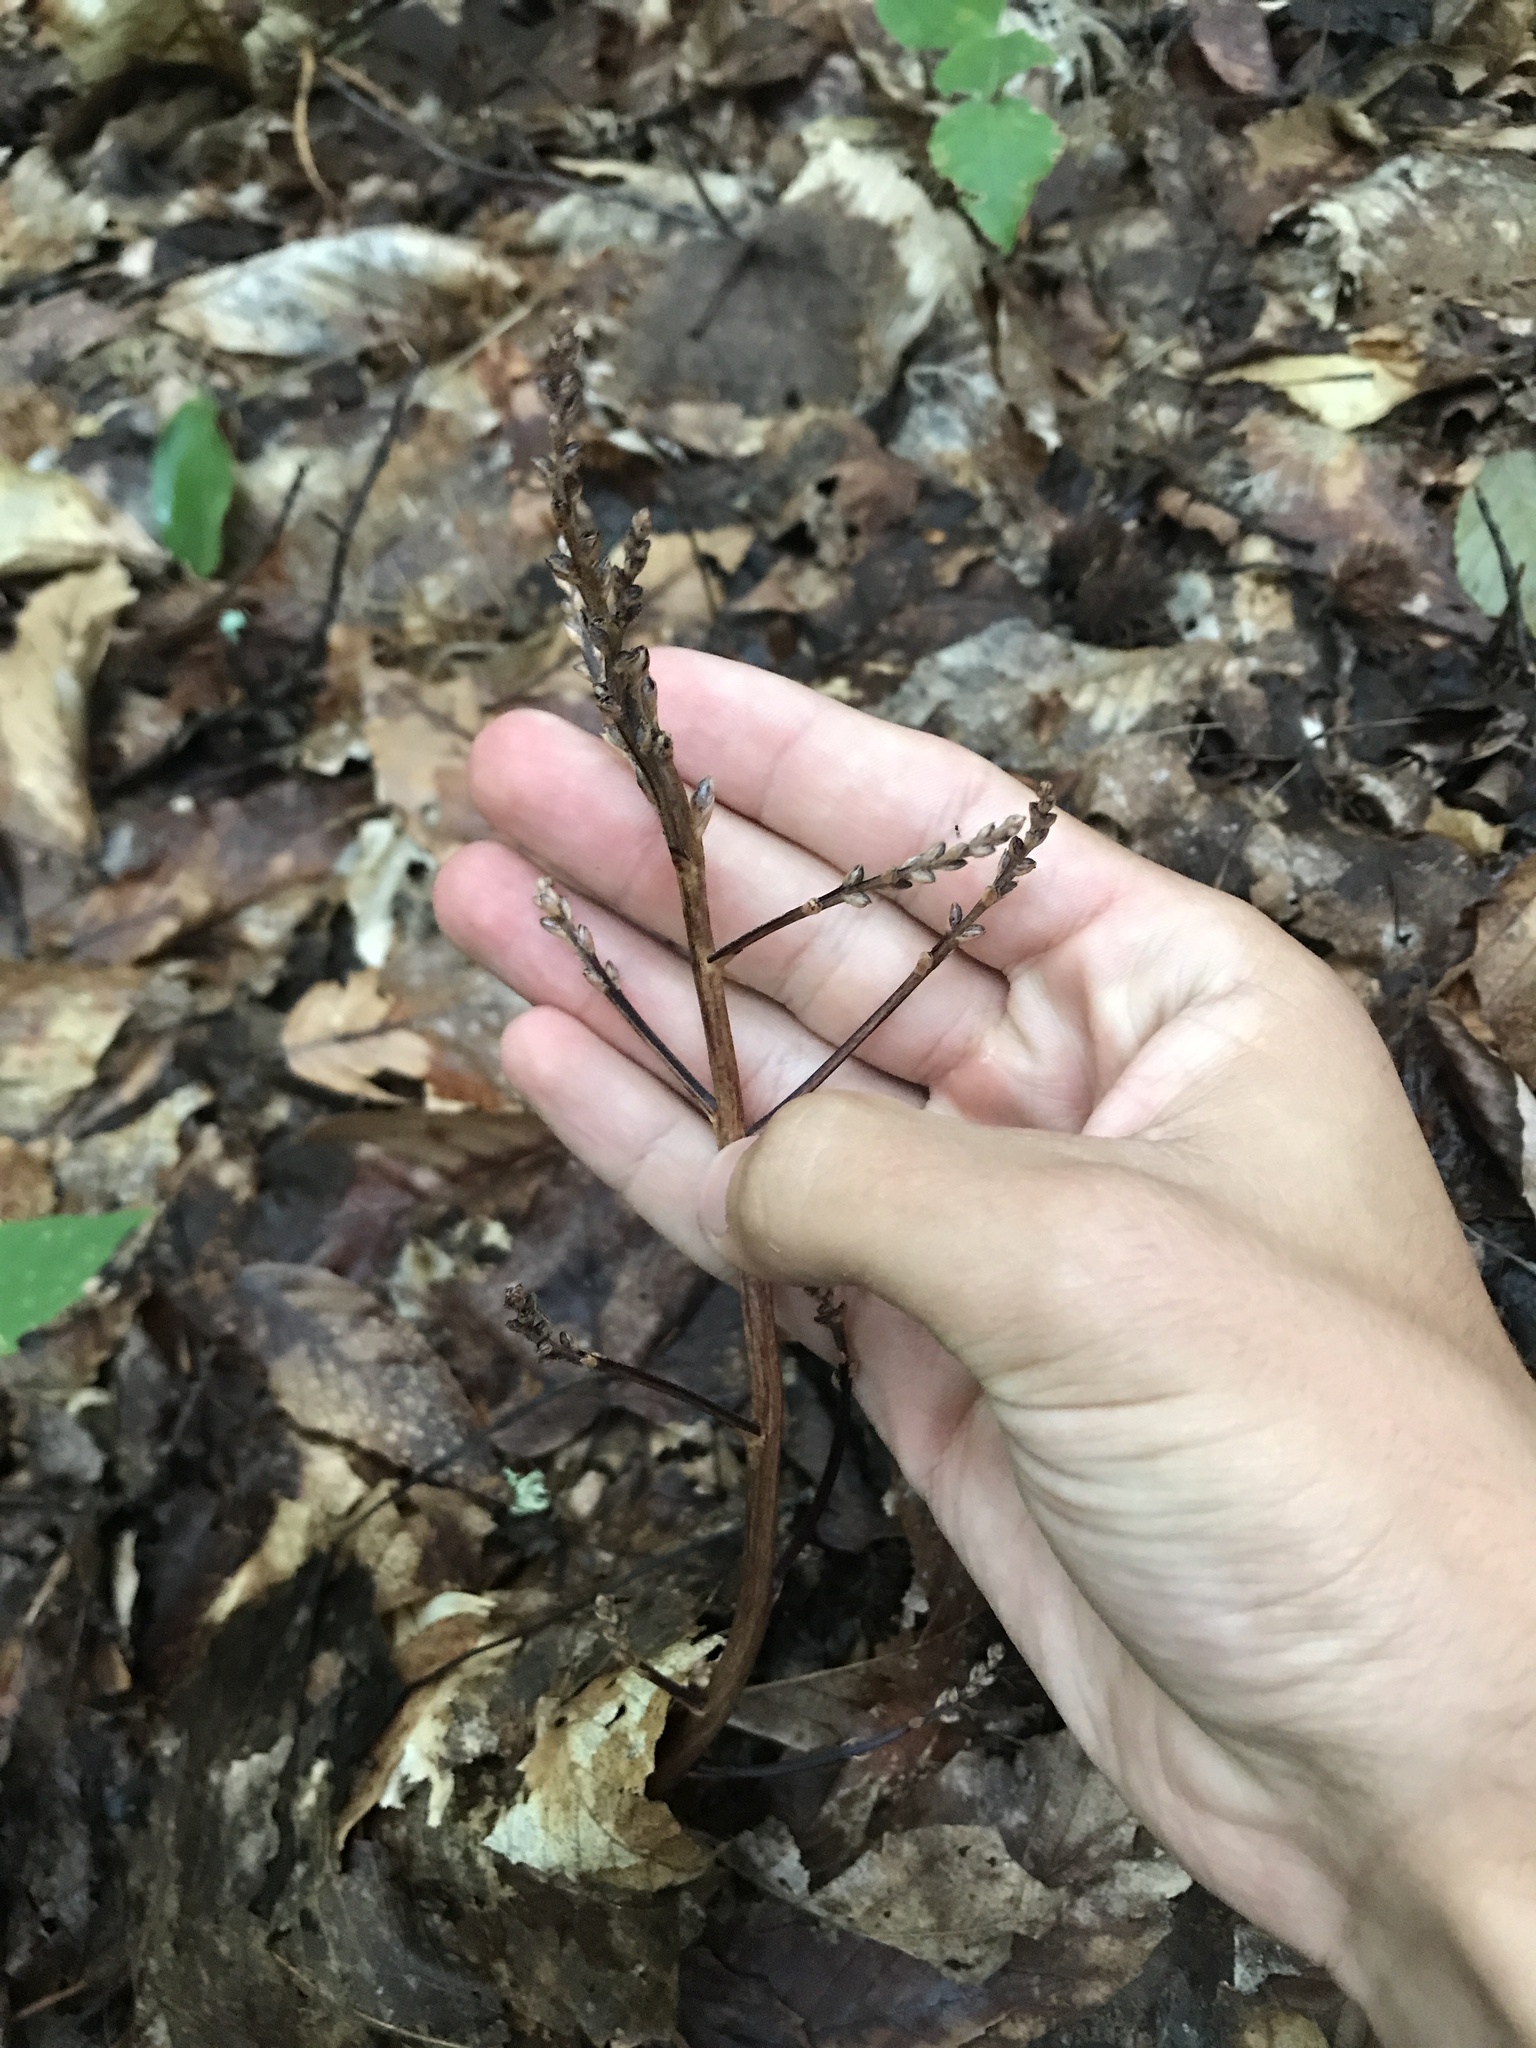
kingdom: Plantae
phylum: Tracheophyta
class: Magnoliopsida
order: Lamiales
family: Orobanchaceae
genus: Epifagus
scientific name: Epifagus virginiana
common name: Beechdrops
